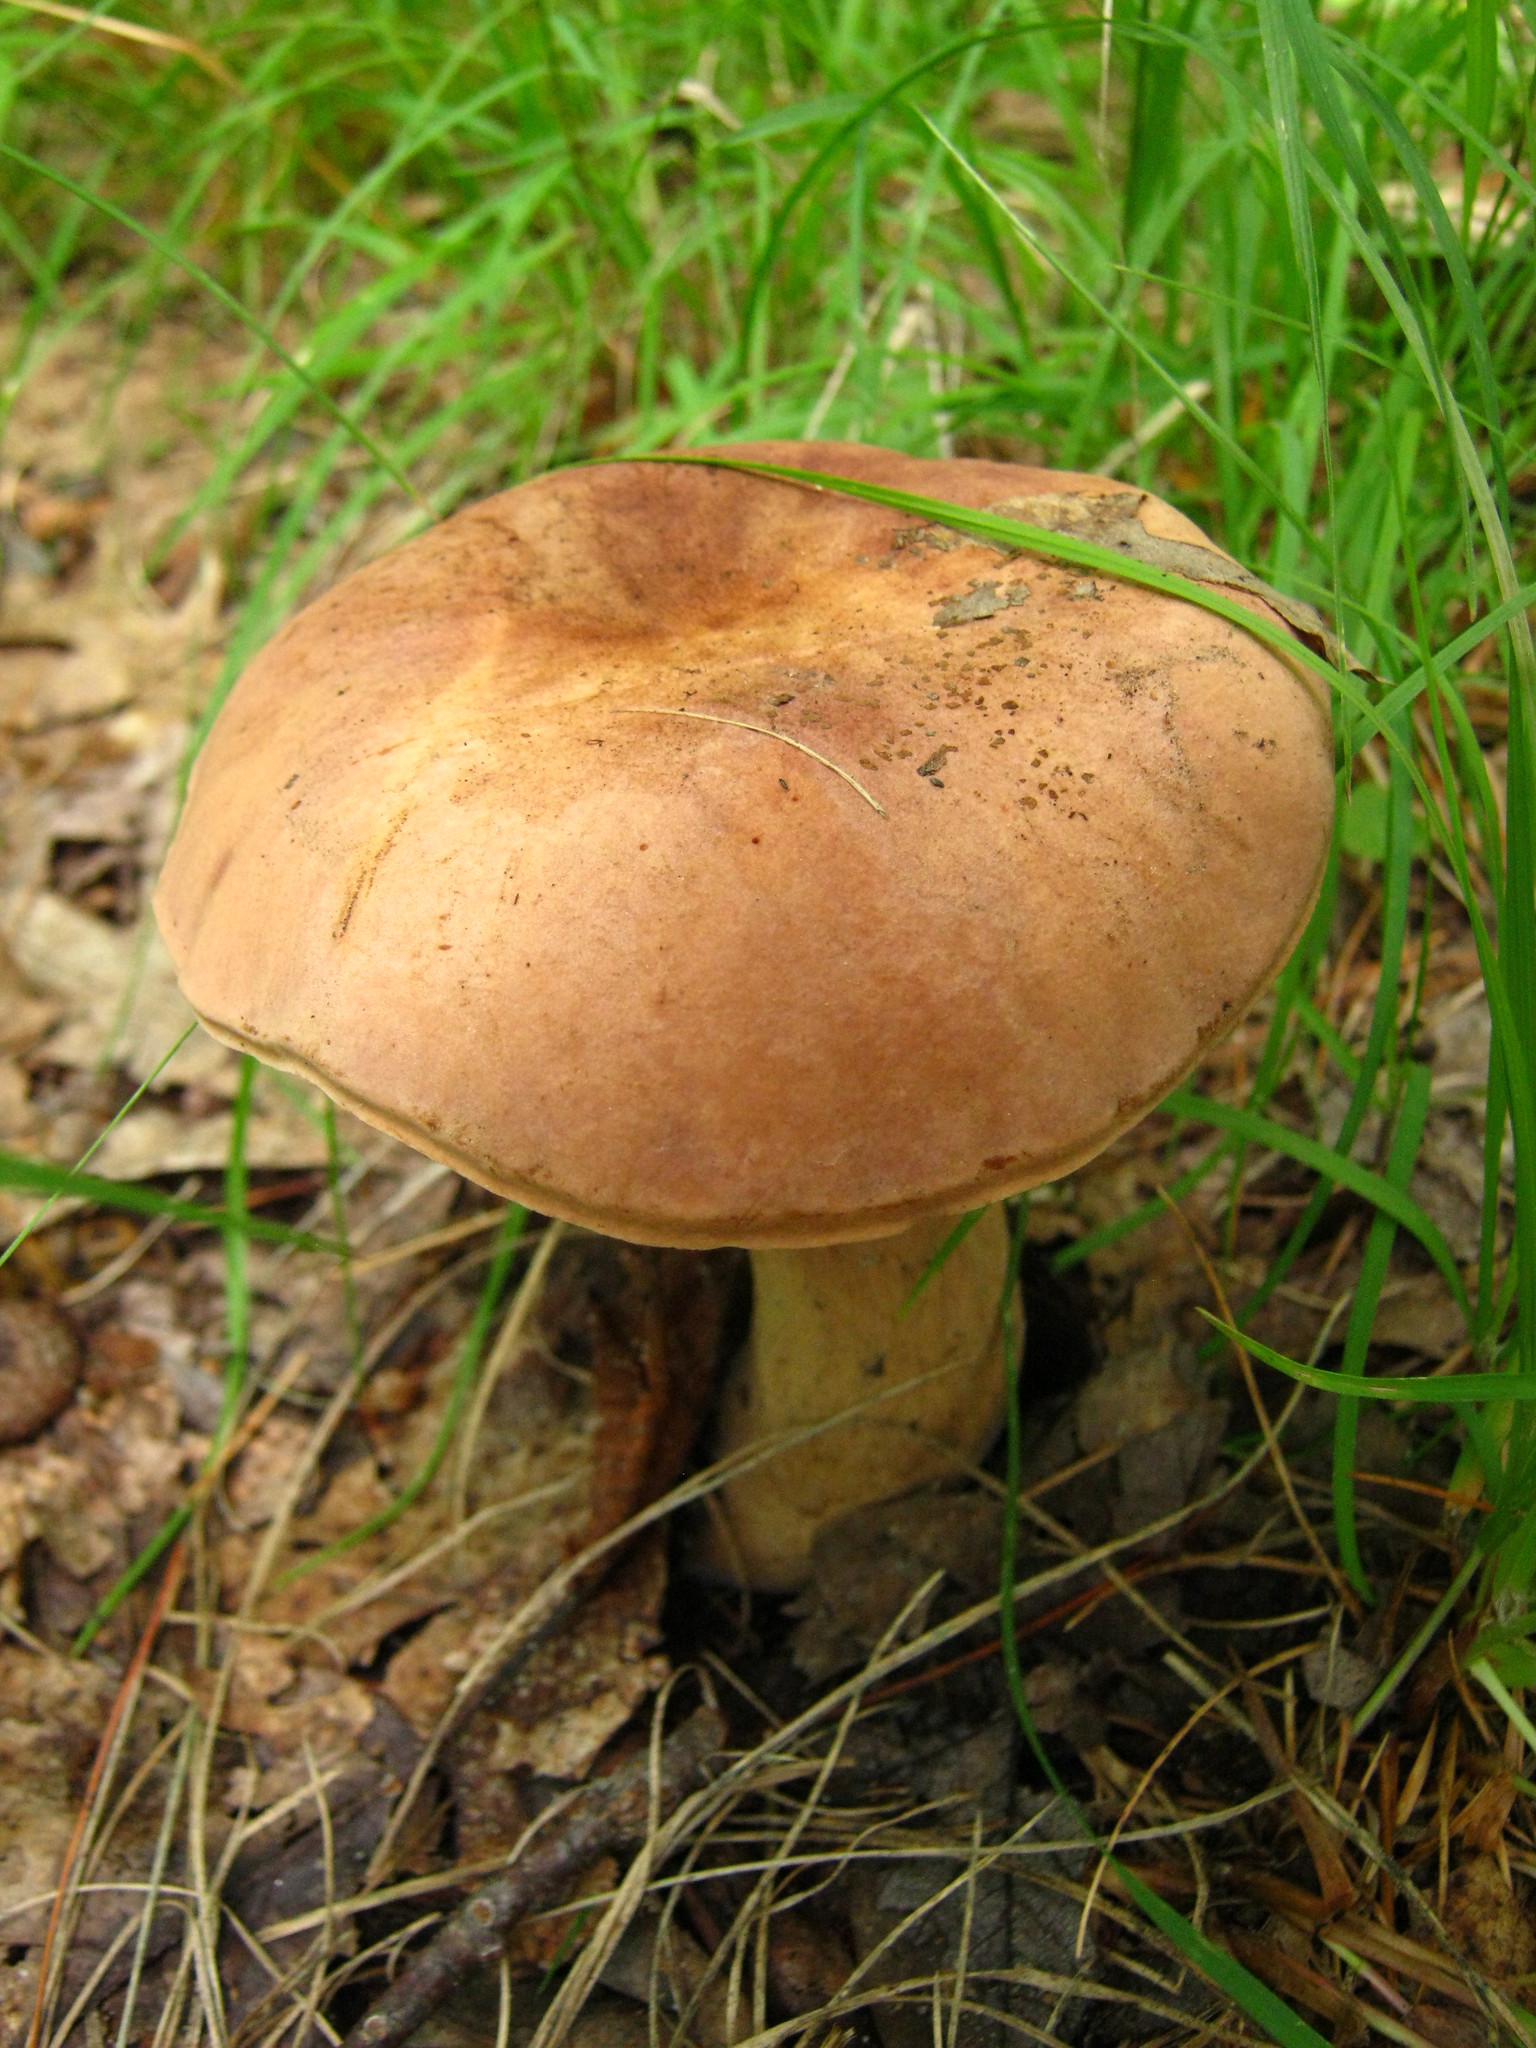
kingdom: Fungi
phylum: Basidiomycota
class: Agaricomycetes
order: Boletales
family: Boletaceae
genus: Porphyrellus
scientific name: Porphyrellus indecisus
